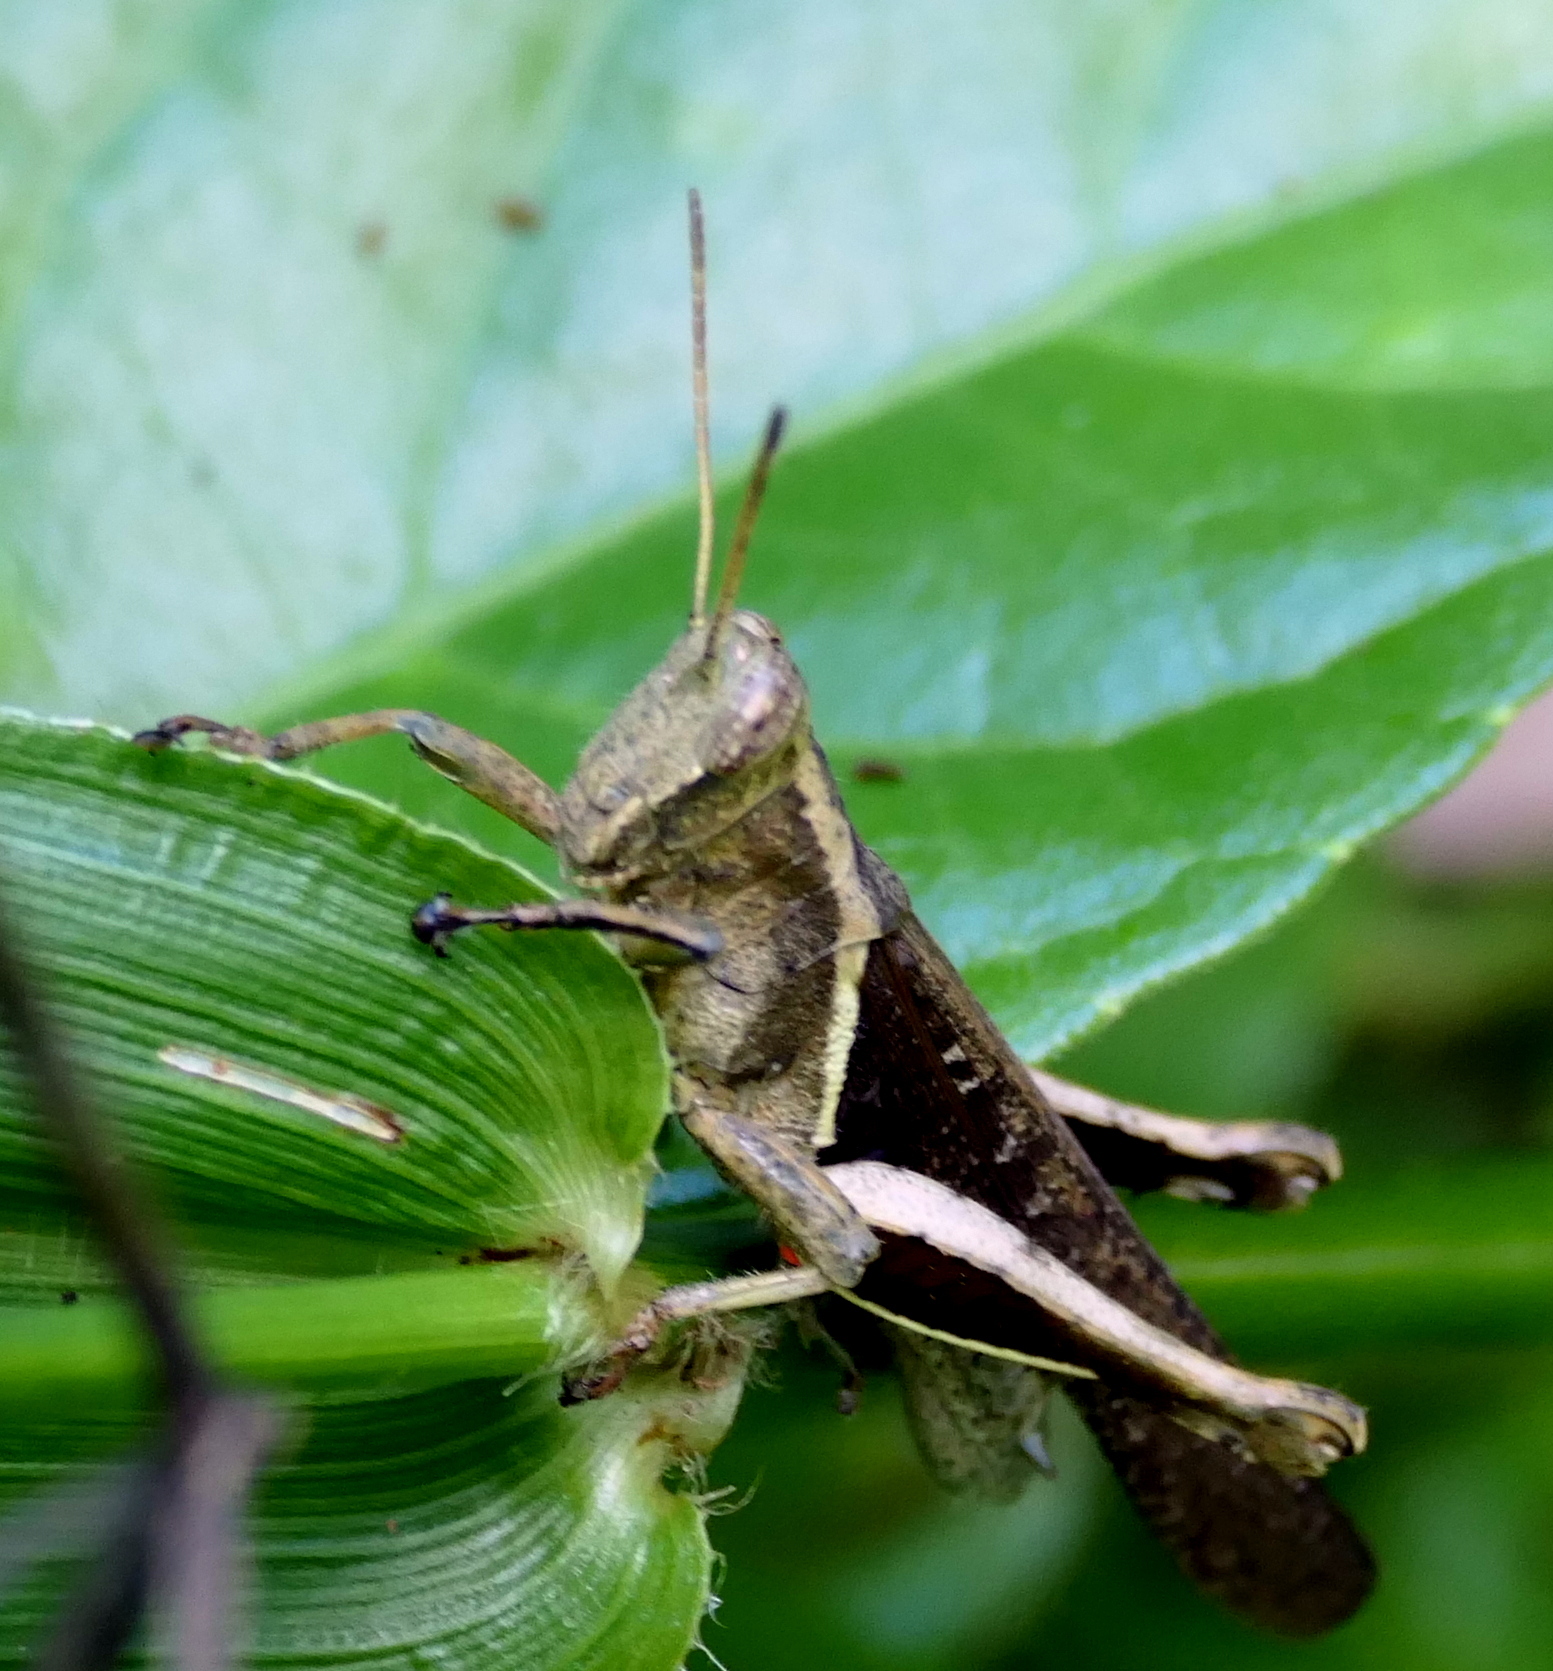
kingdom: Animalia
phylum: Arthropoda
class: Insecta
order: Orthoptera
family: Acrididae
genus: Abracris
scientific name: Abracris flavolineata
